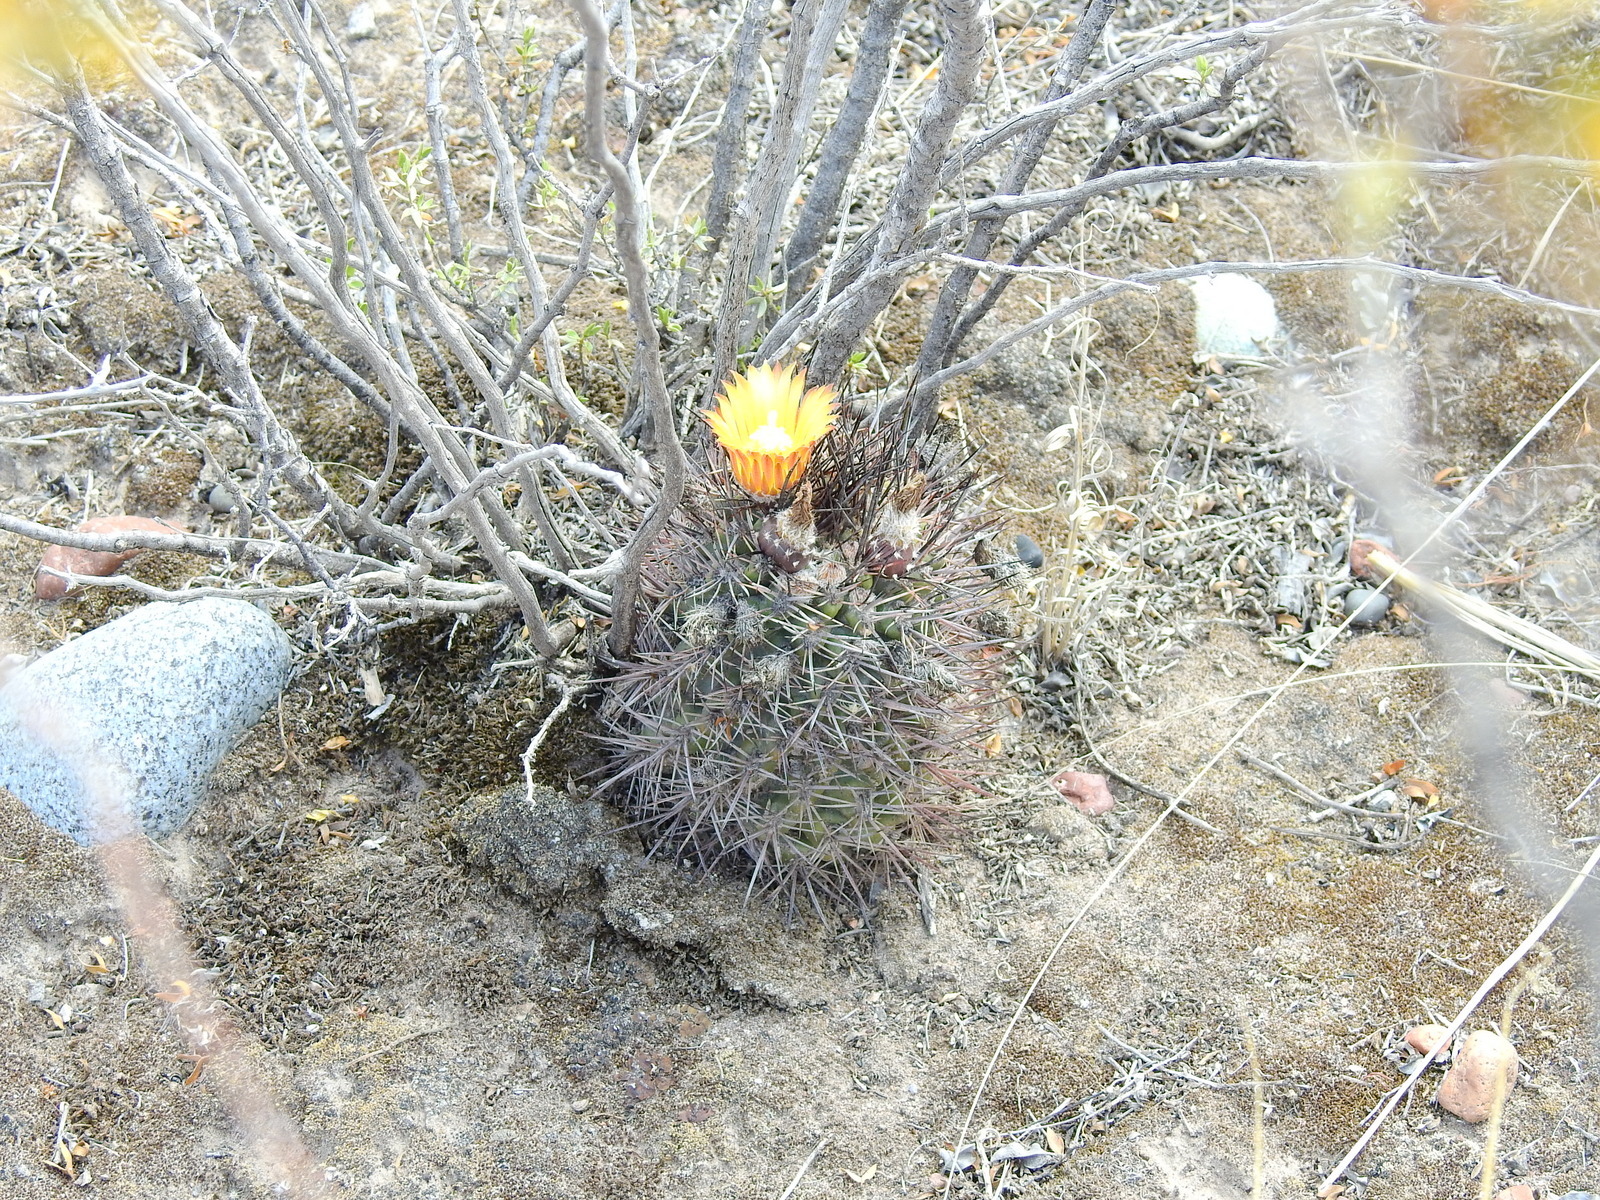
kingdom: Plantae
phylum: Tracheophyta
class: Magnoliopsida
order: Caryophyllales
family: Cactaceae
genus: Eriosyce
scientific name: Eriosyce strausiana
